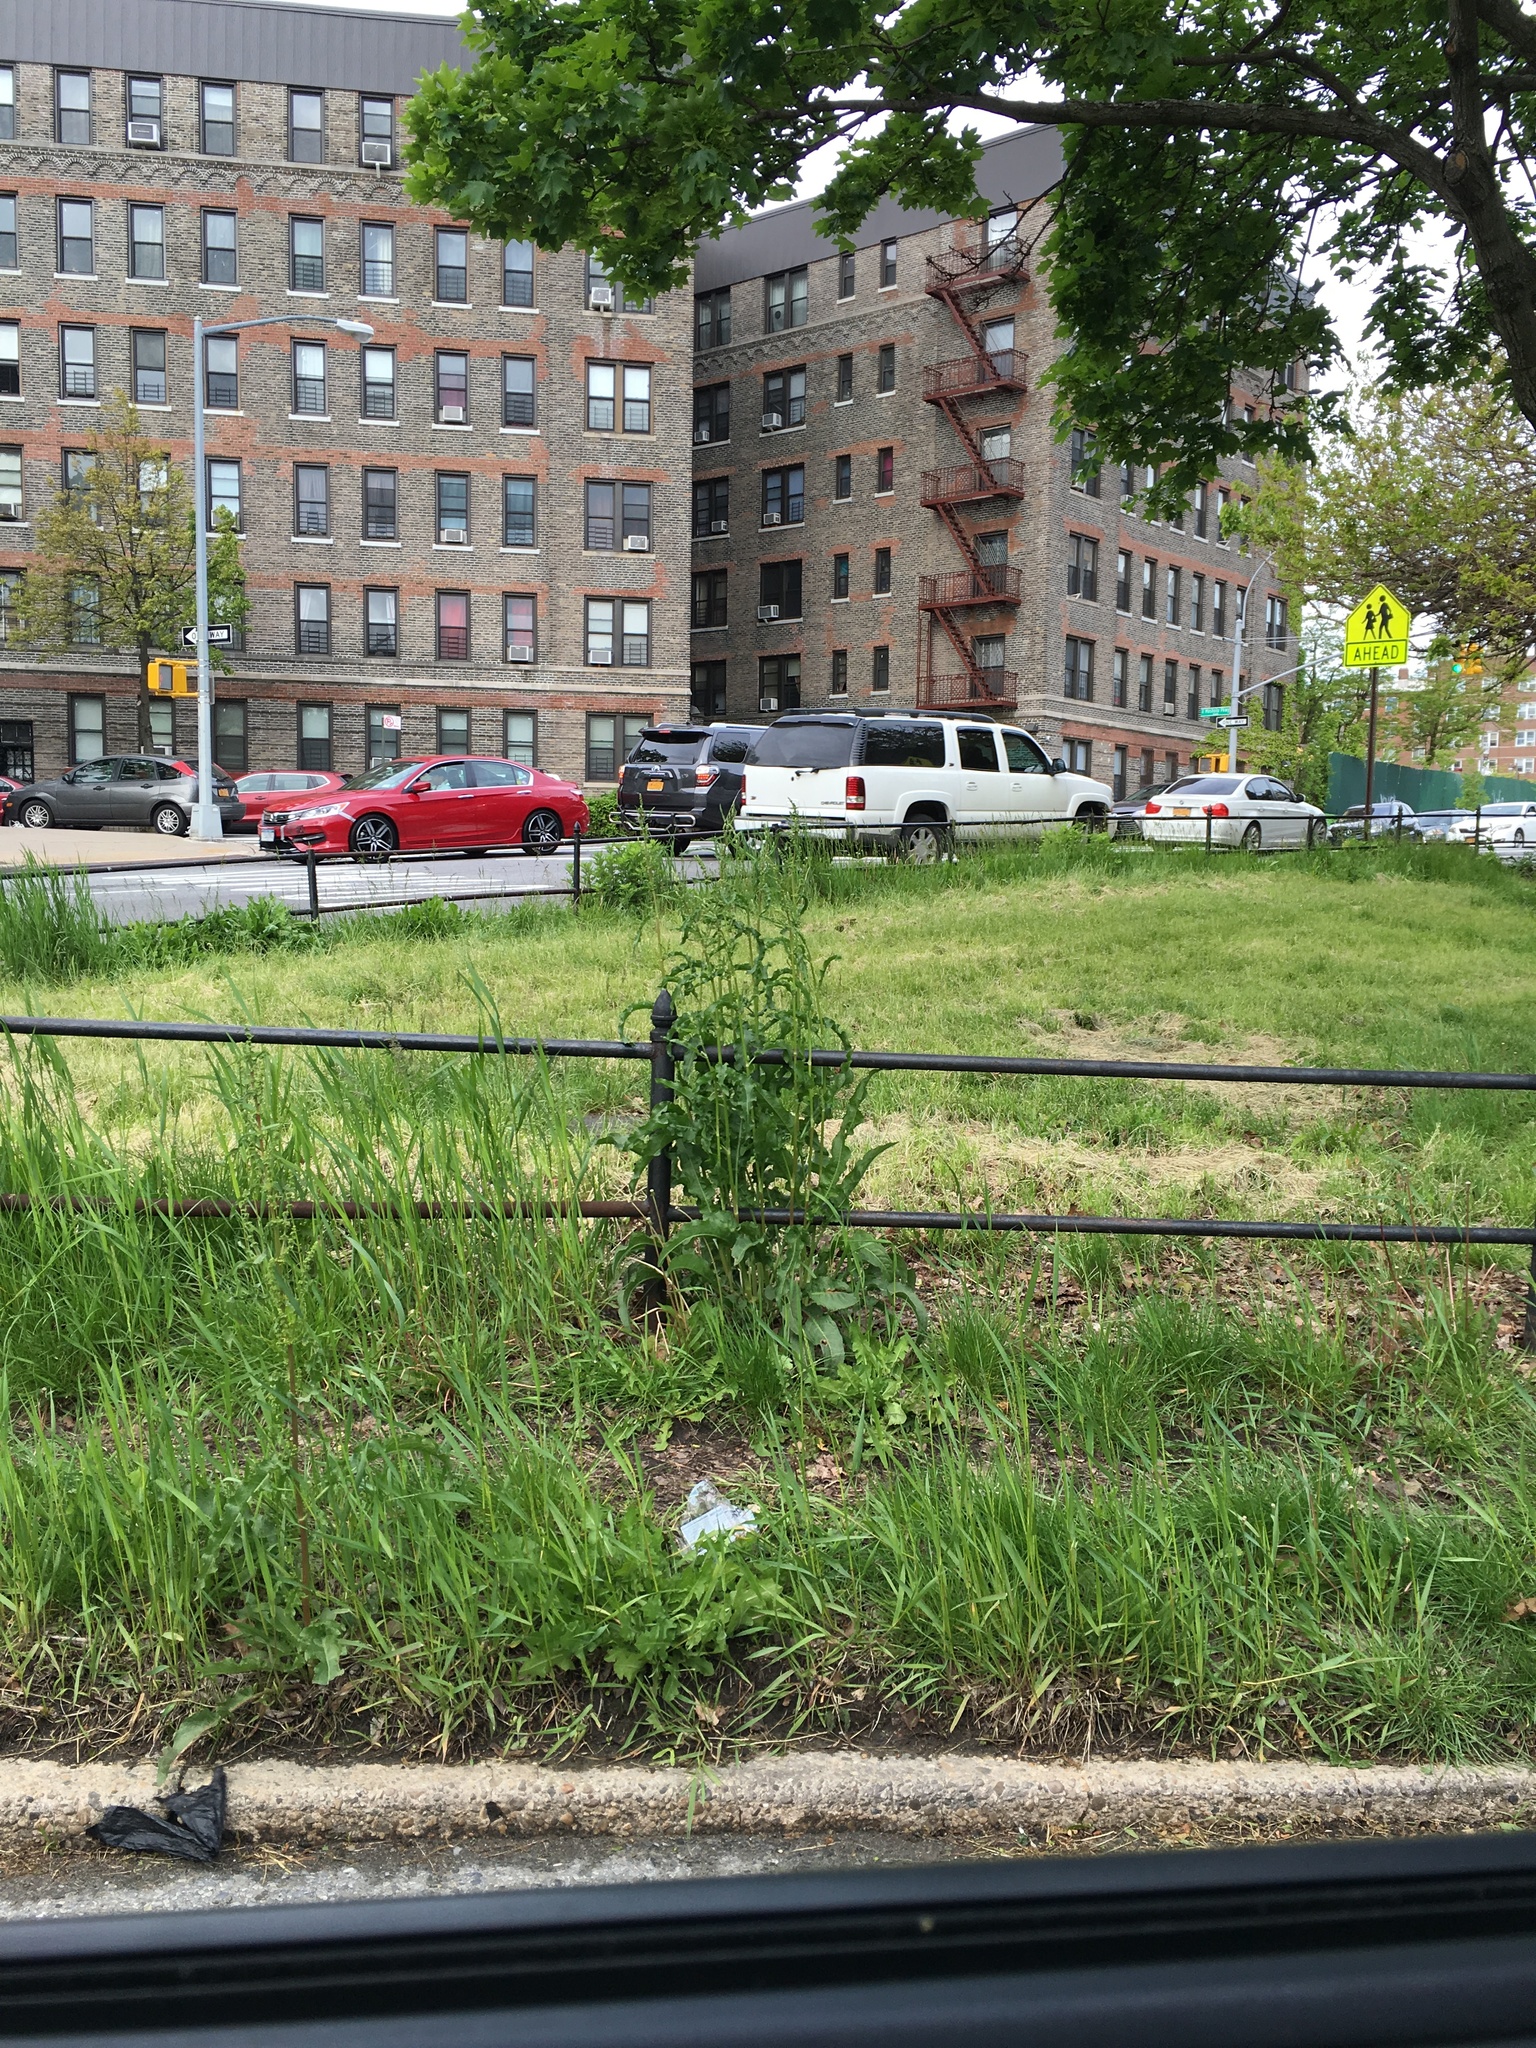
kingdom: Plantae
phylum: Tracheophyta
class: Magnoliopsida
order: Caryophyllales
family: Polygonaceae
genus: Rumex
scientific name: Rumex crispus
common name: Curled dock
